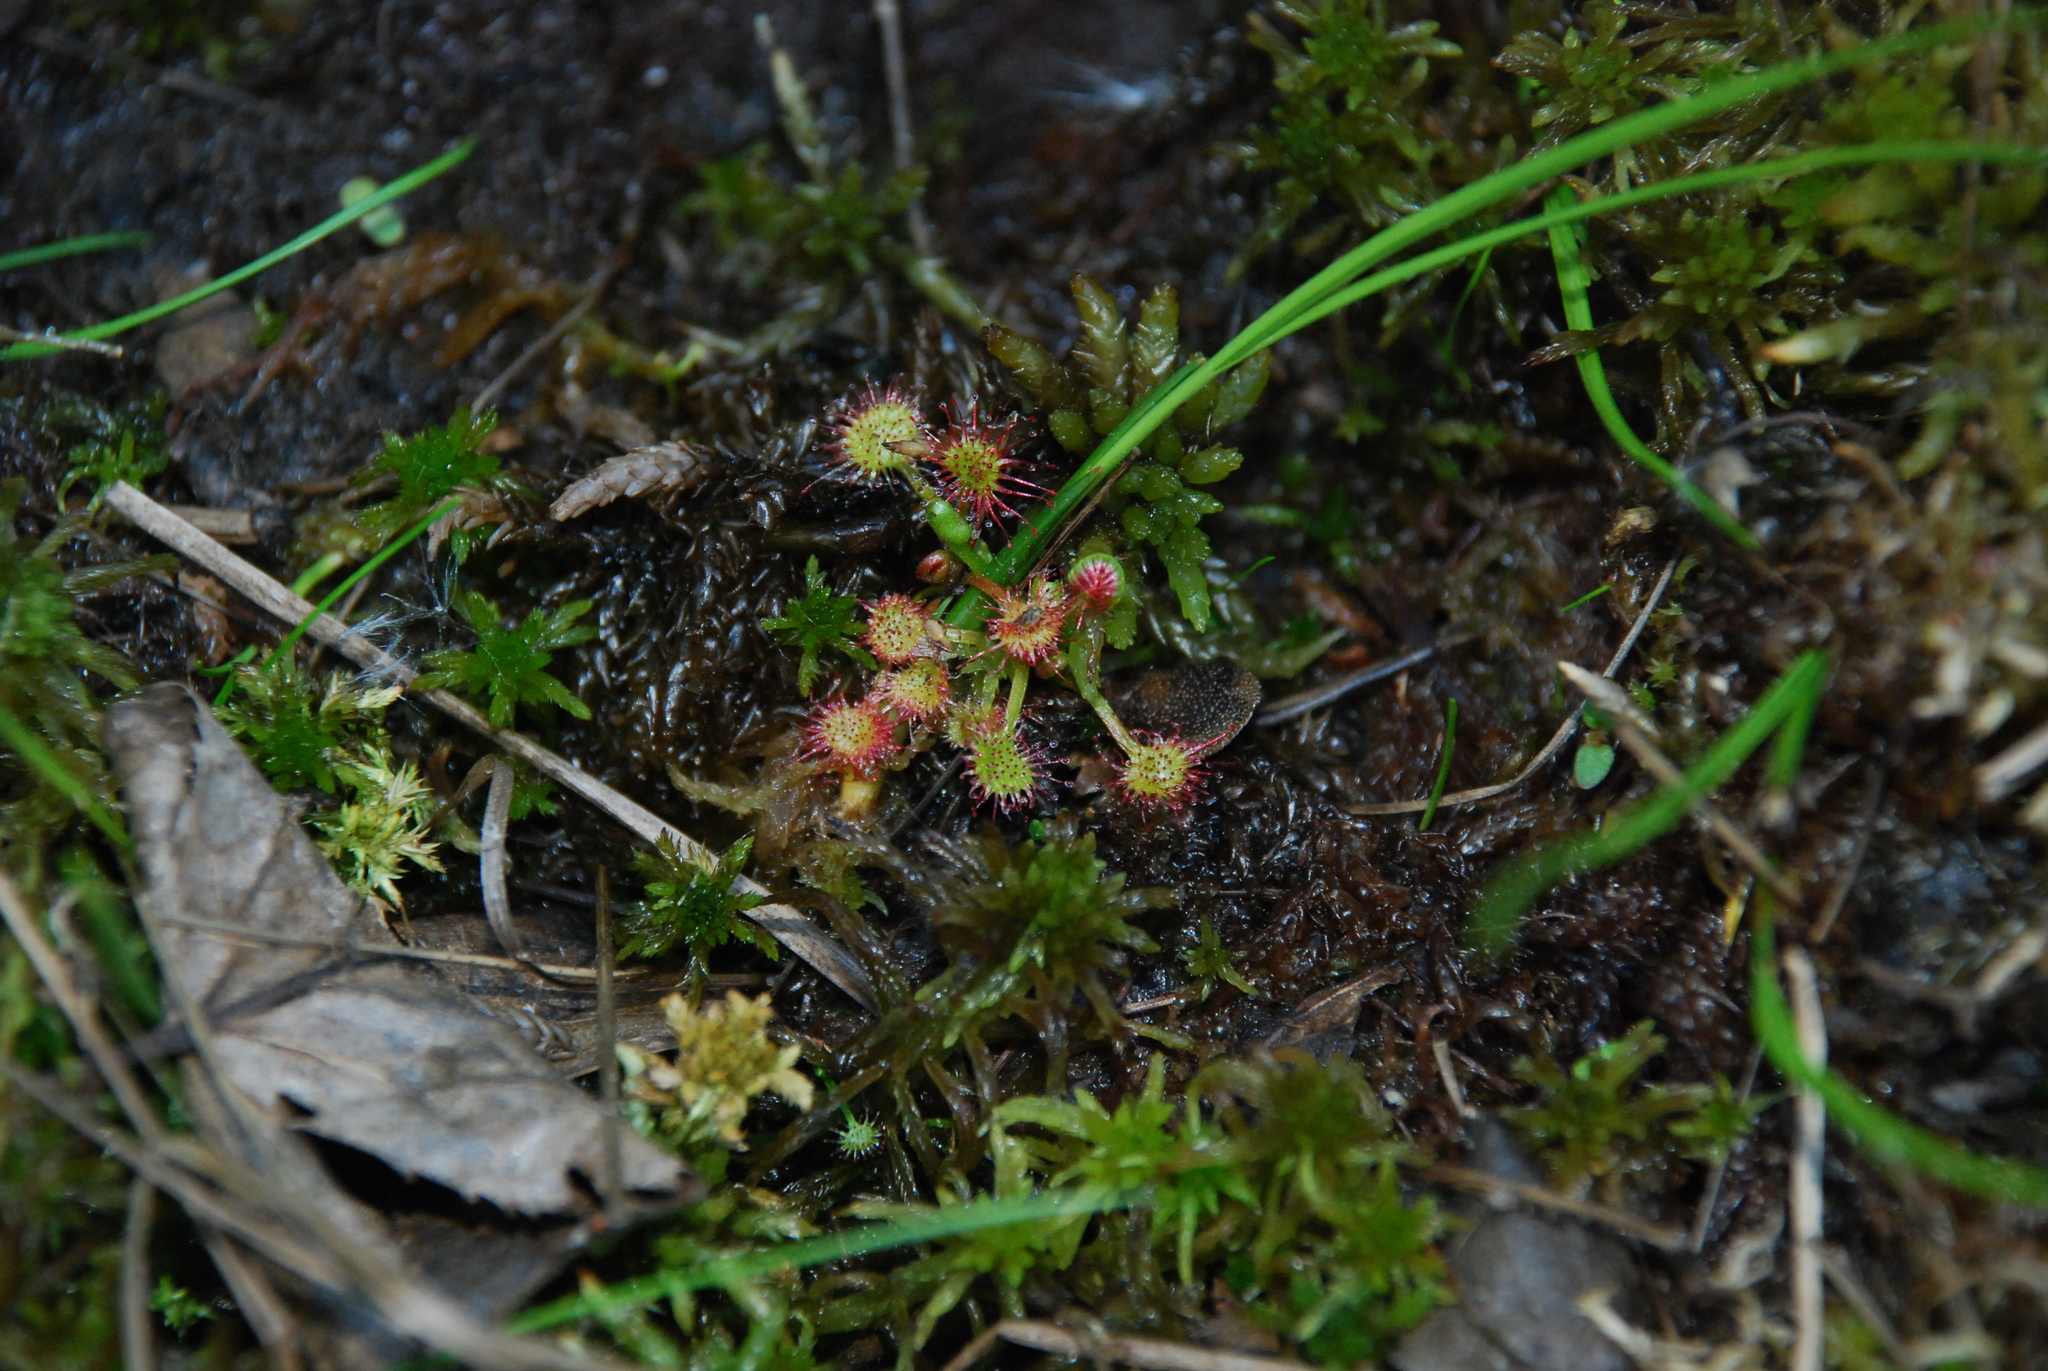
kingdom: Plantae
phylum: Tracheophyta
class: Magnoliopsida
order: Caryophyllales
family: Droseraceae
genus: Drosera
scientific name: Drosera rotundifolia
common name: Round-leaved sundew
